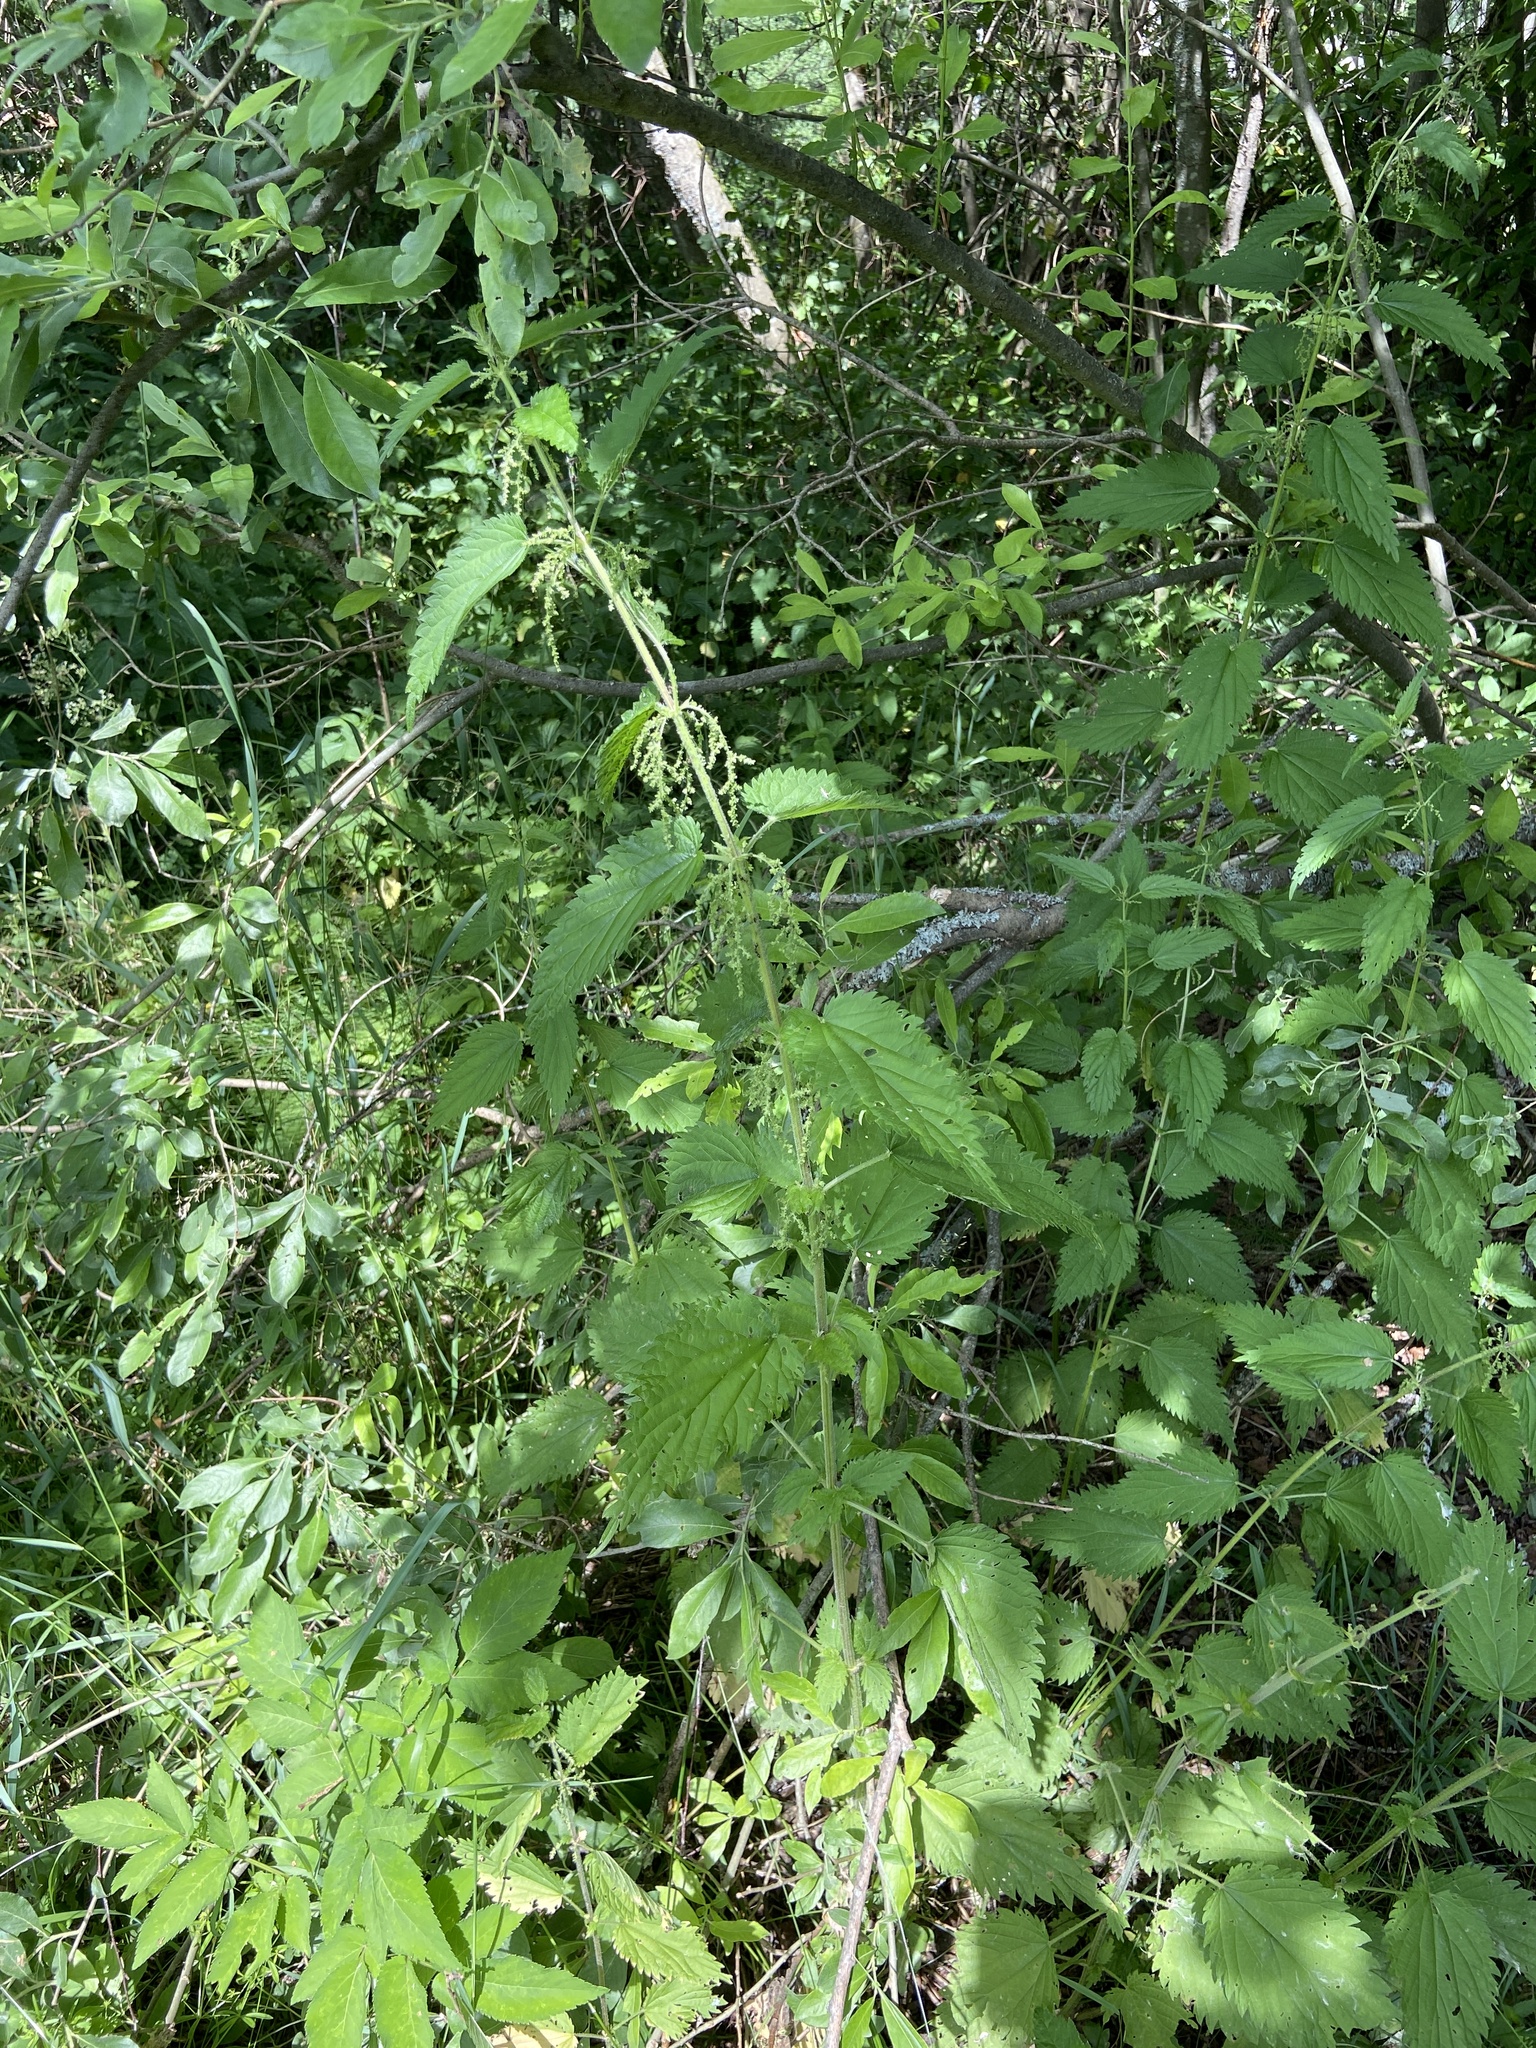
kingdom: Plantae
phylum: Tracheophyta
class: Magnoliopsida
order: Rosales
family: Urticaceae
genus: Urtica
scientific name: Urtica dioica
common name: Common nettle
